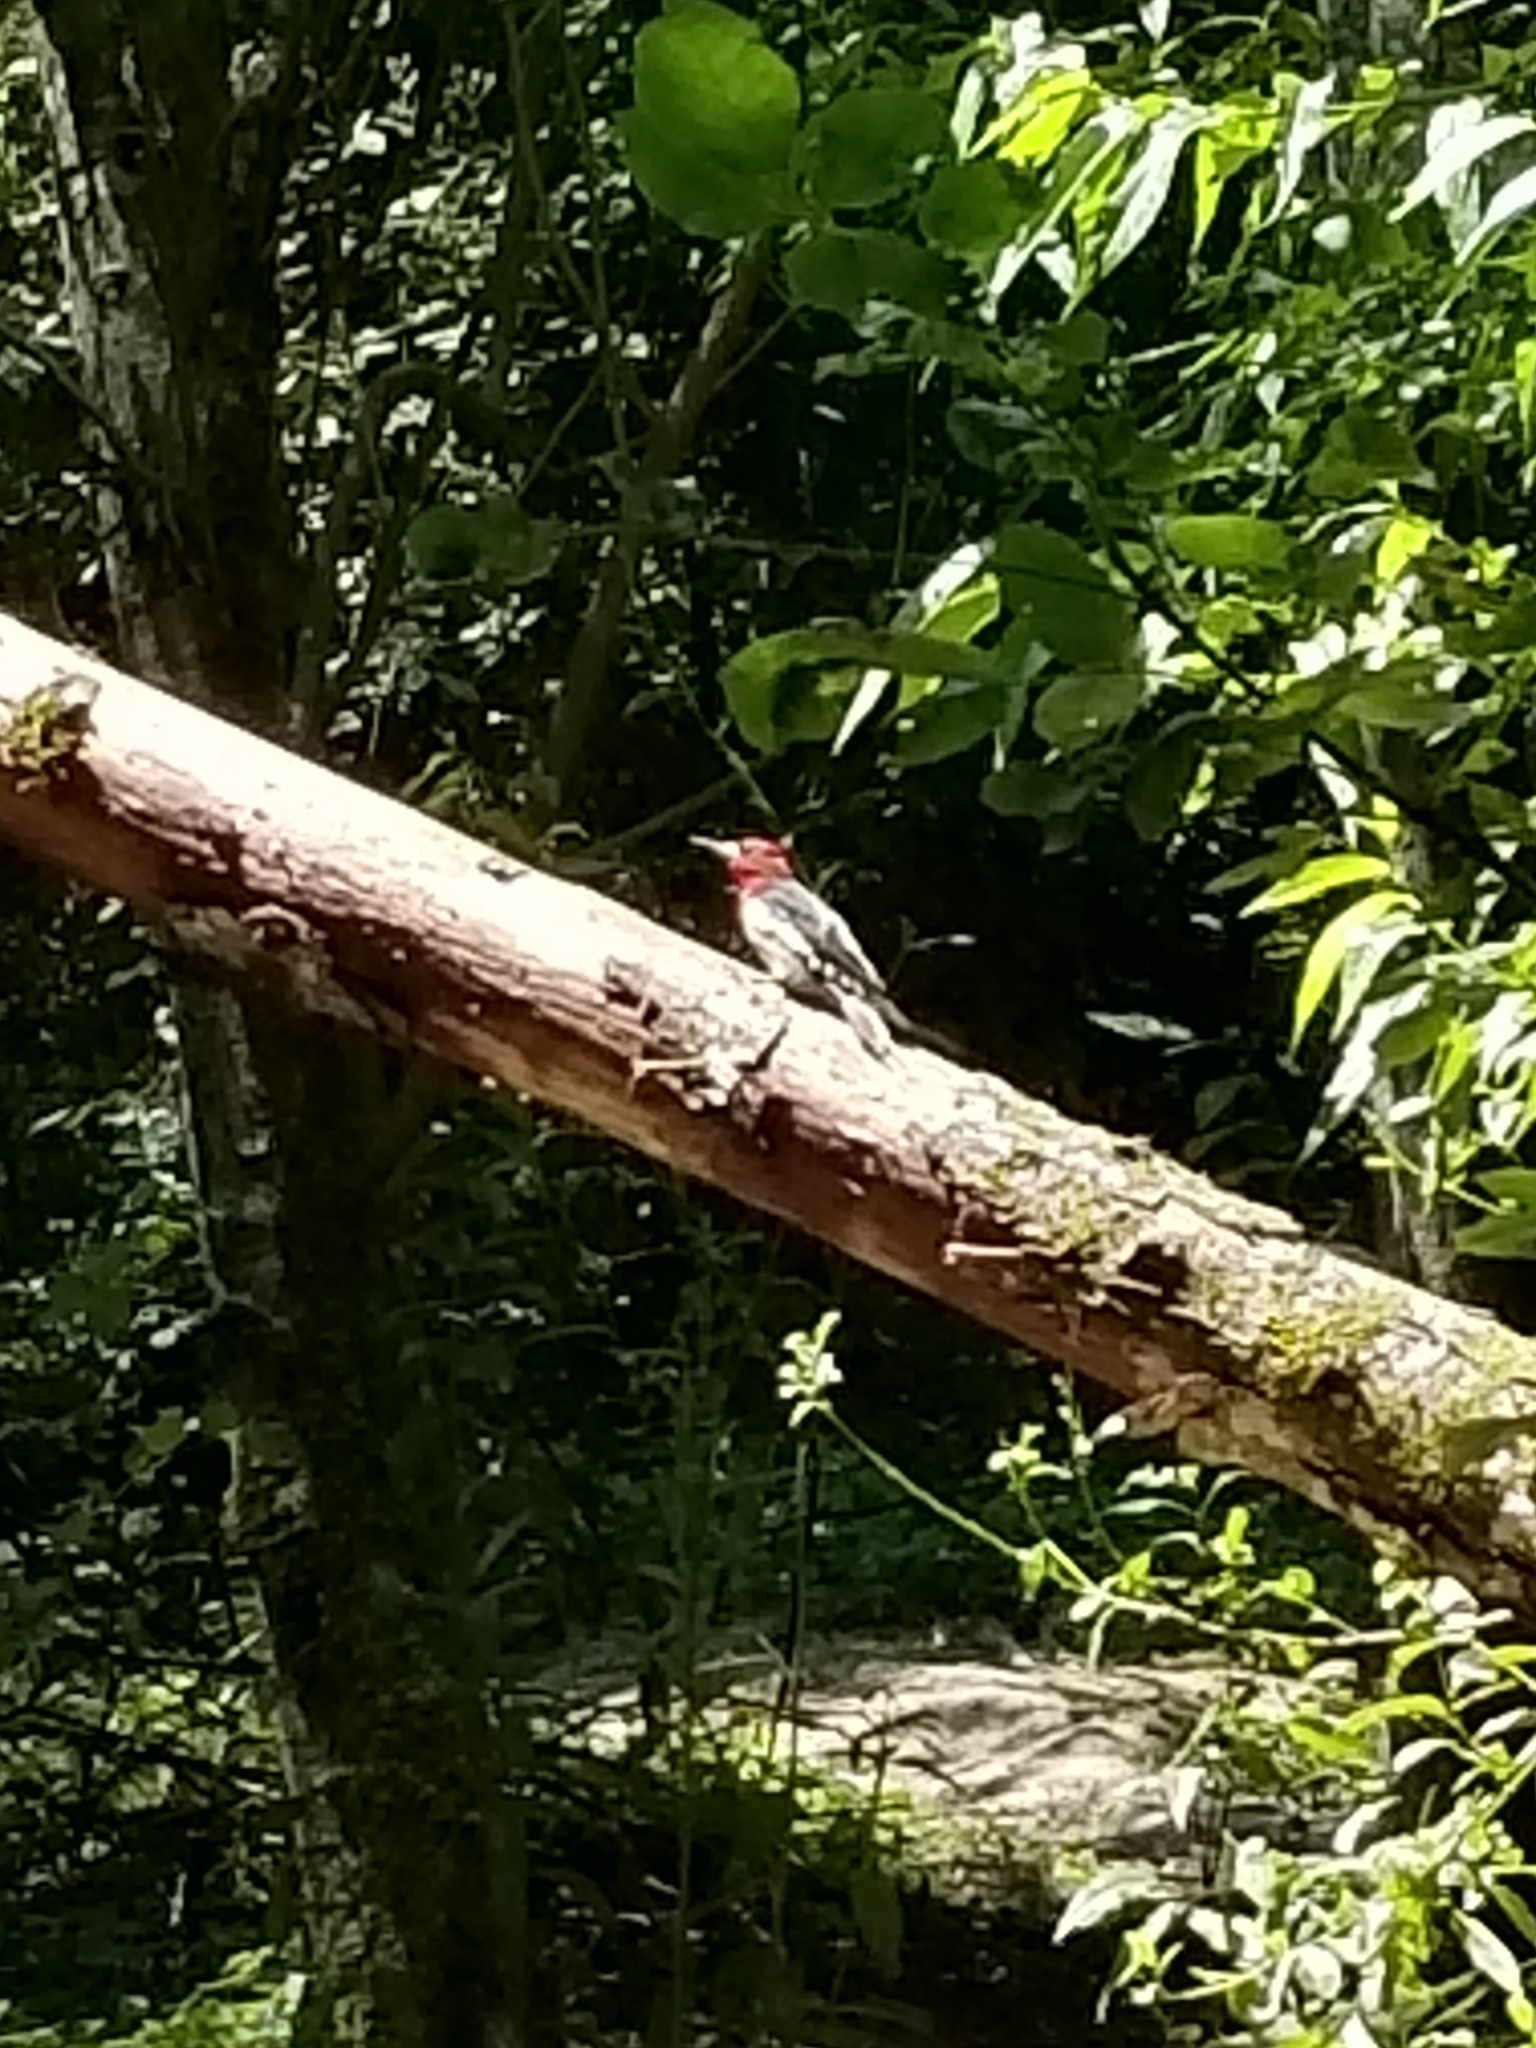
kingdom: Animalia
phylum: Chordata
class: Aves
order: Piciformes
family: Picidae
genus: Sphyrapicus
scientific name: Sphyrapicus ruber
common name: Red-breasted sapsucker
